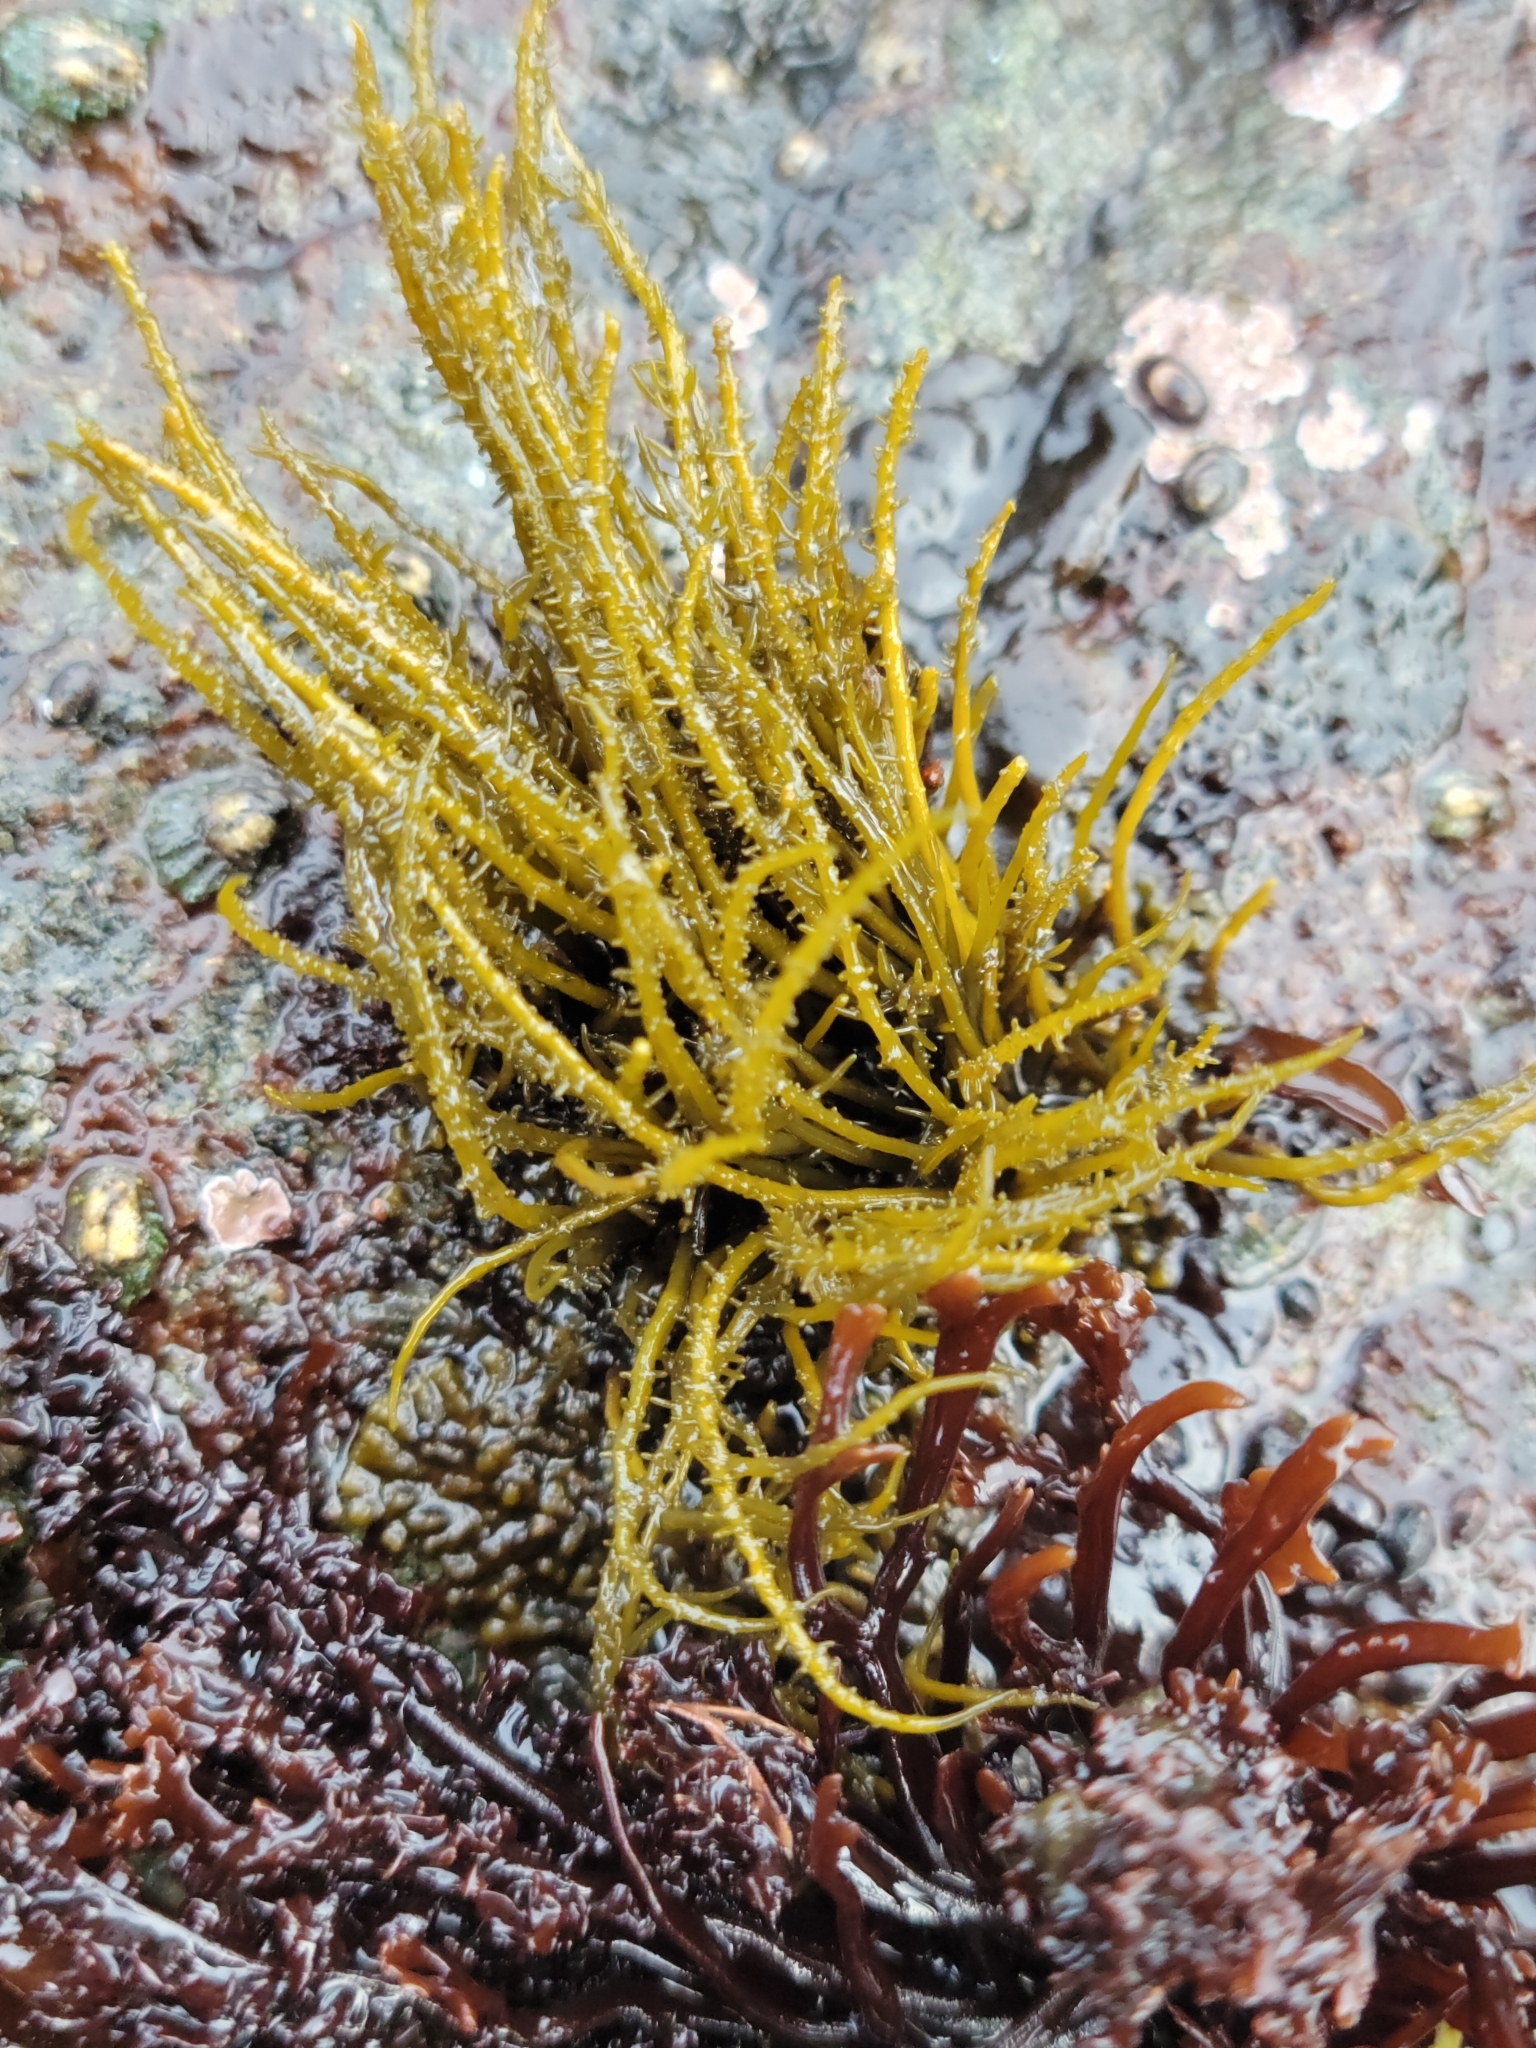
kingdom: Chromista
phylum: Ochrophyta
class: Phaeophyceae
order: Scytosiphonales
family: Scytosiphonaceae
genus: Analipus
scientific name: Analipus japonicus
